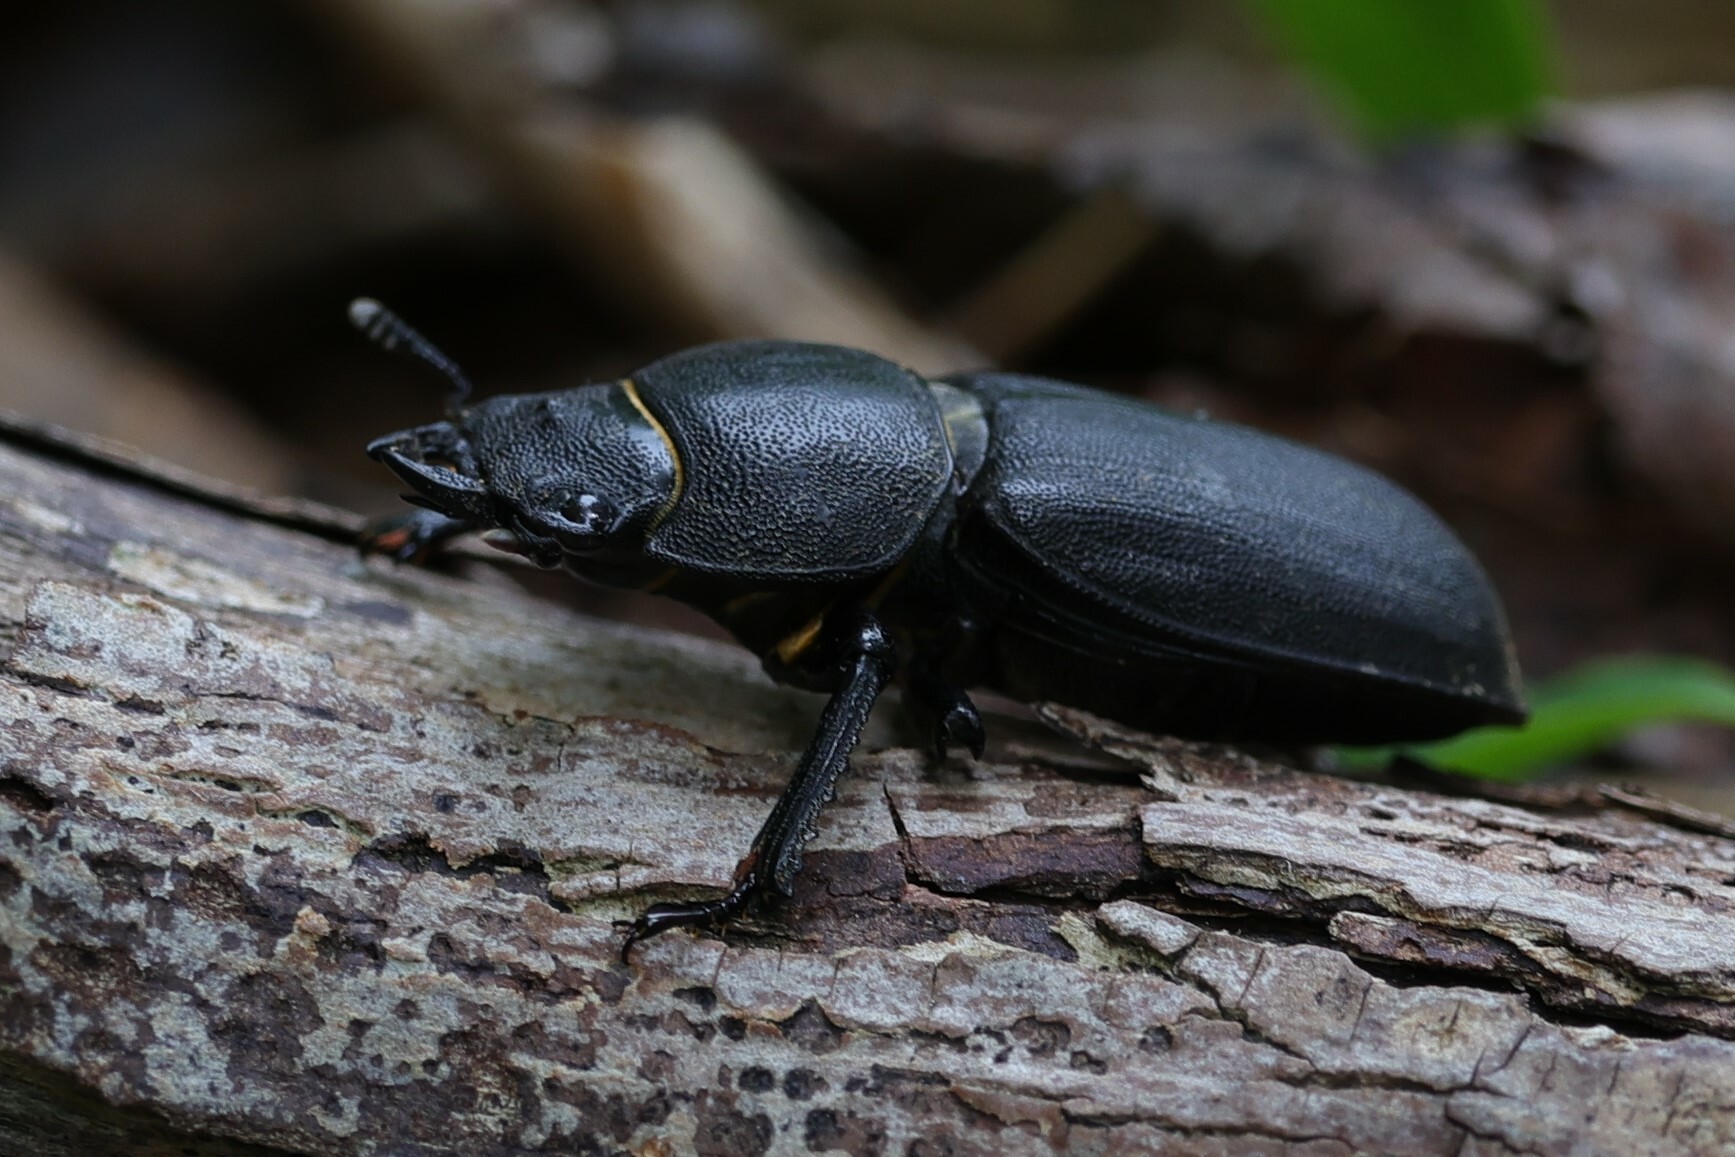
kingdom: Animalia
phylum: Arthropoda
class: Insecta
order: Coleoptera
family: Lucanidae
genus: Dorcus
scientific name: Dorcus parallelipipedus
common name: Lesser stag beetle
